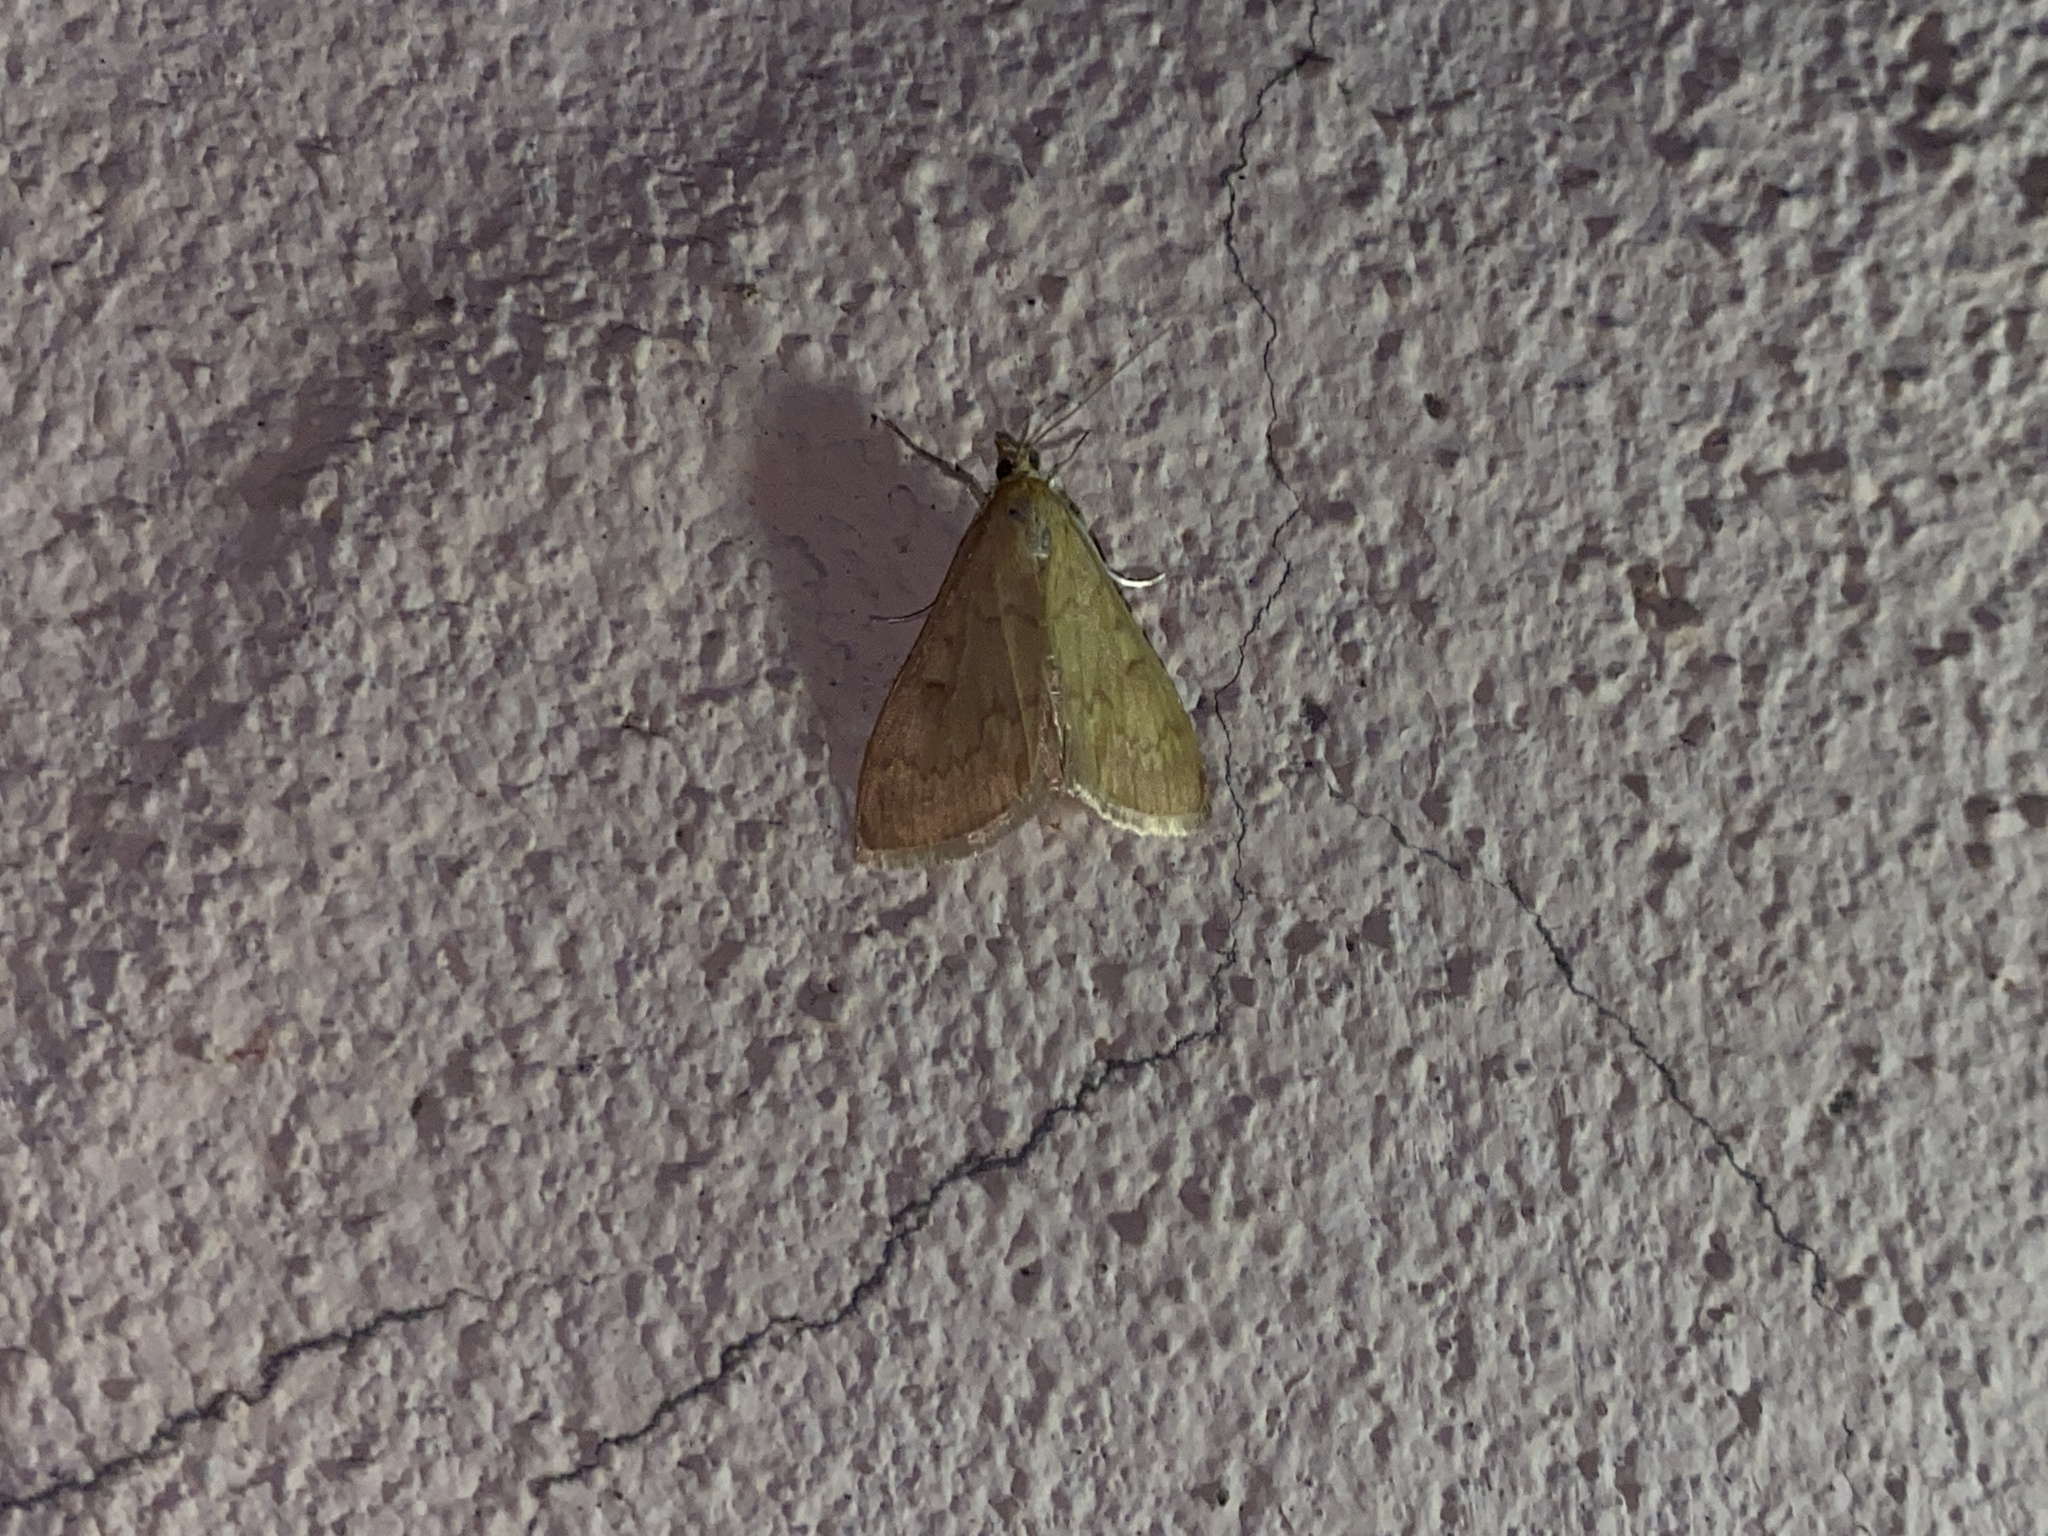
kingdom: Animalia
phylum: Arthropoda
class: Insecta
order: Lepidoptera
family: Crambidae
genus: Ostrinia
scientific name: Ostrinia nubilalis
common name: European corn borer
